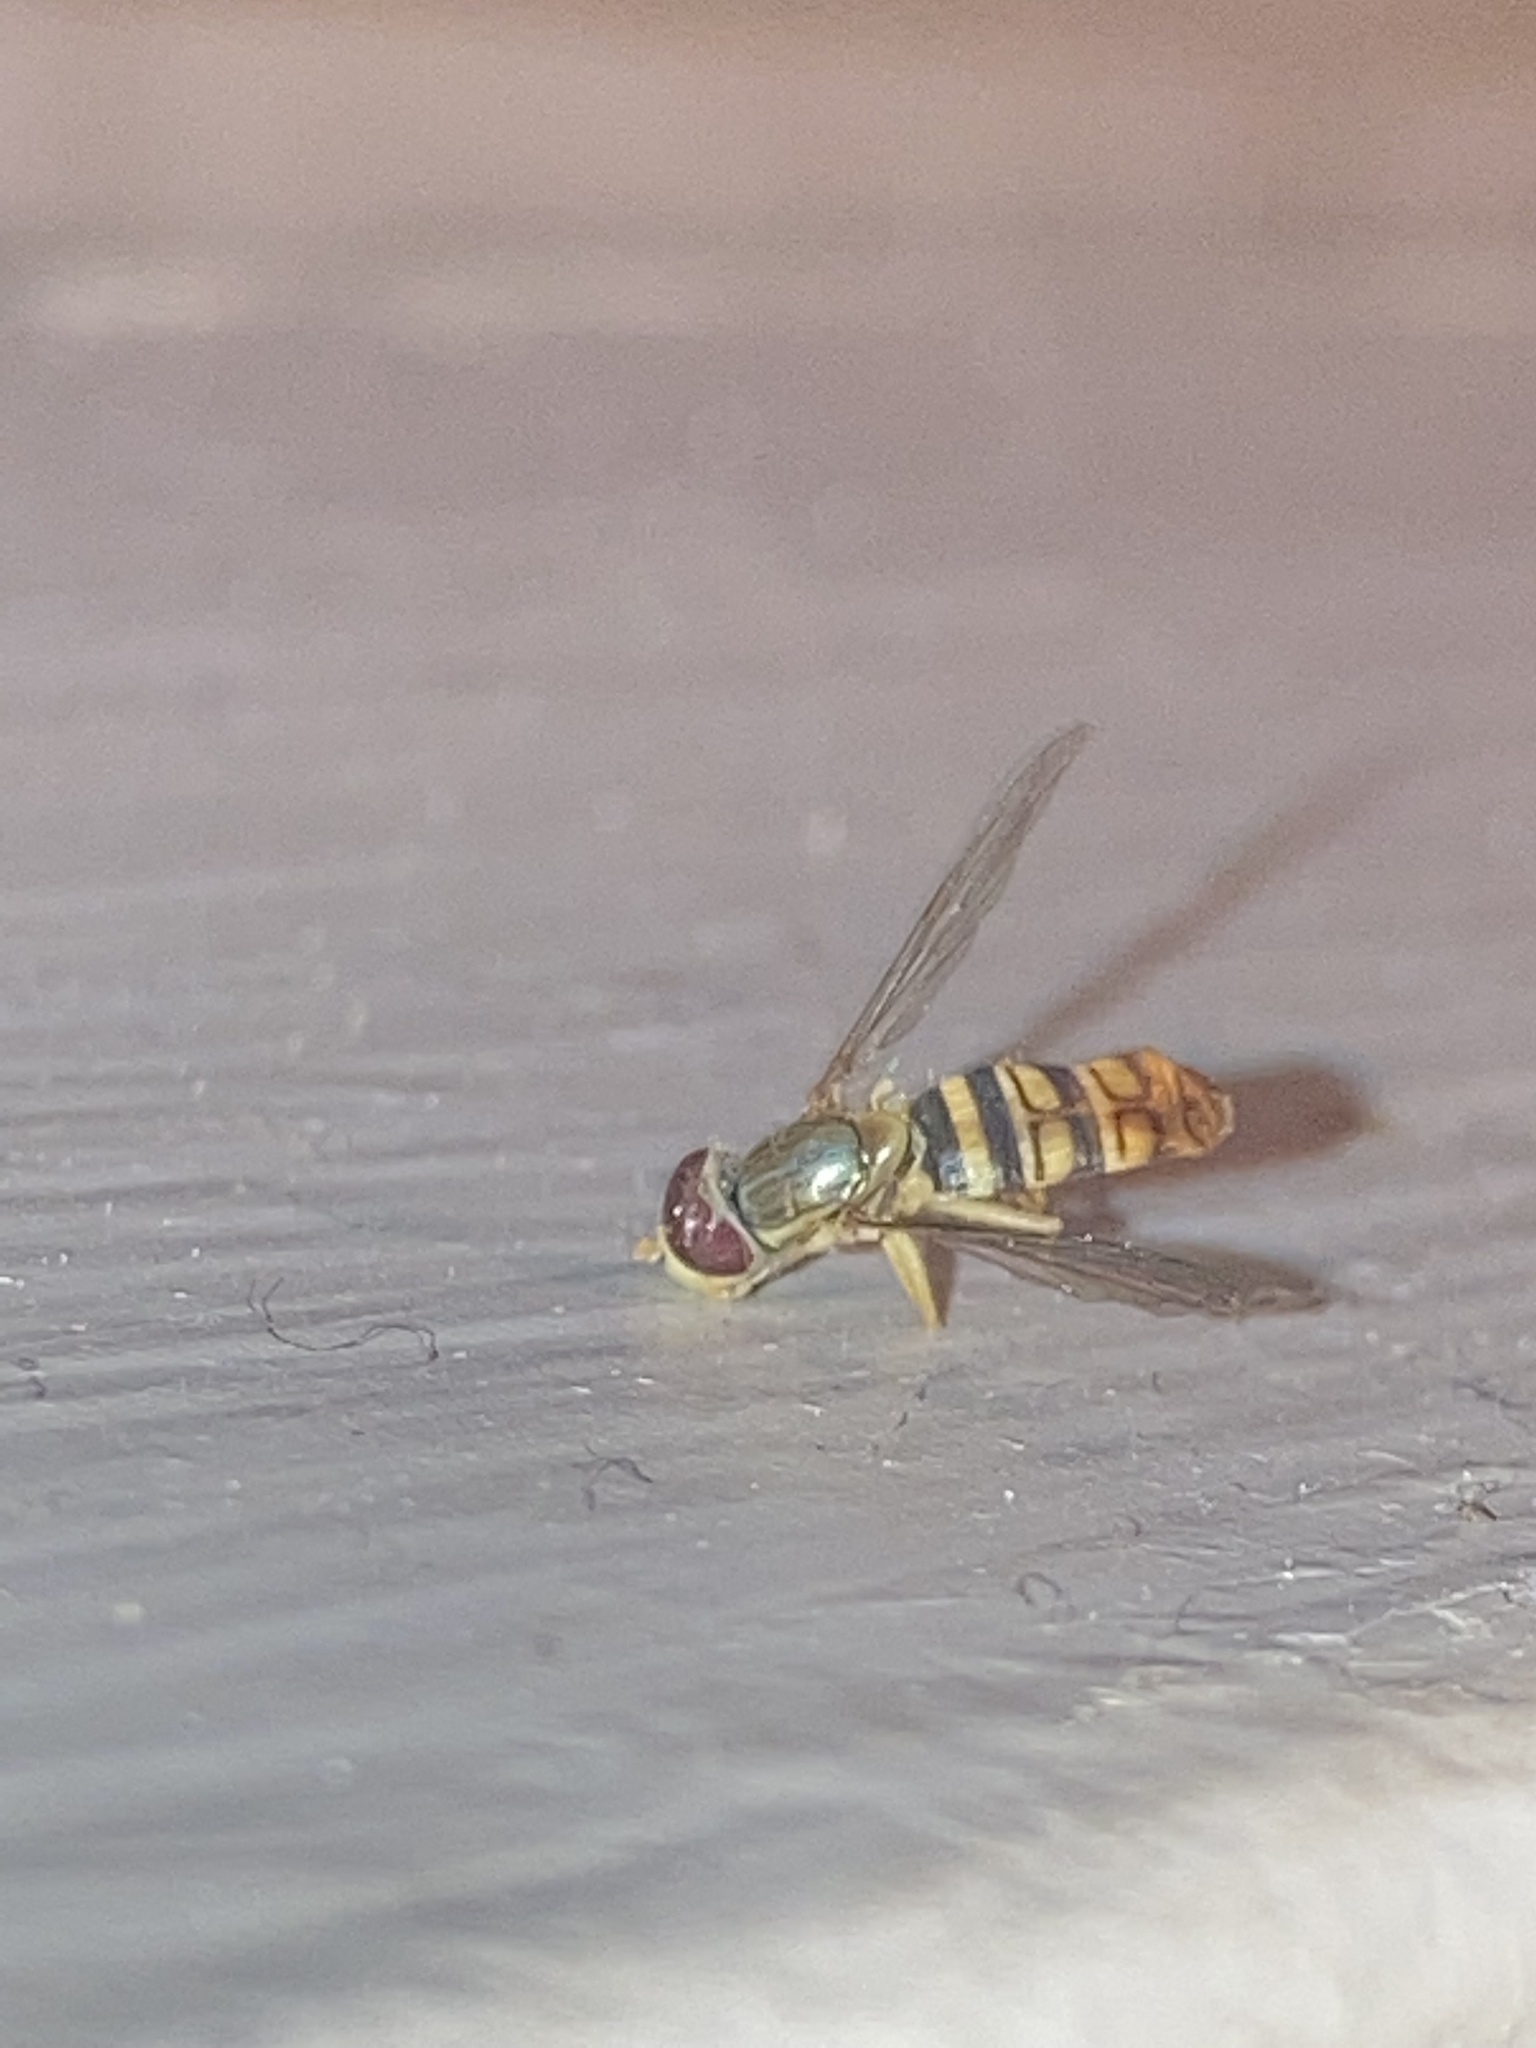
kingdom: Animalia
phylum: Arthropoda
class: Insecta
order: Diptera
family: Syrphidae
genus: Toxomerus
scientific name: Toxomerus politus
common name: Maize calligrapher
